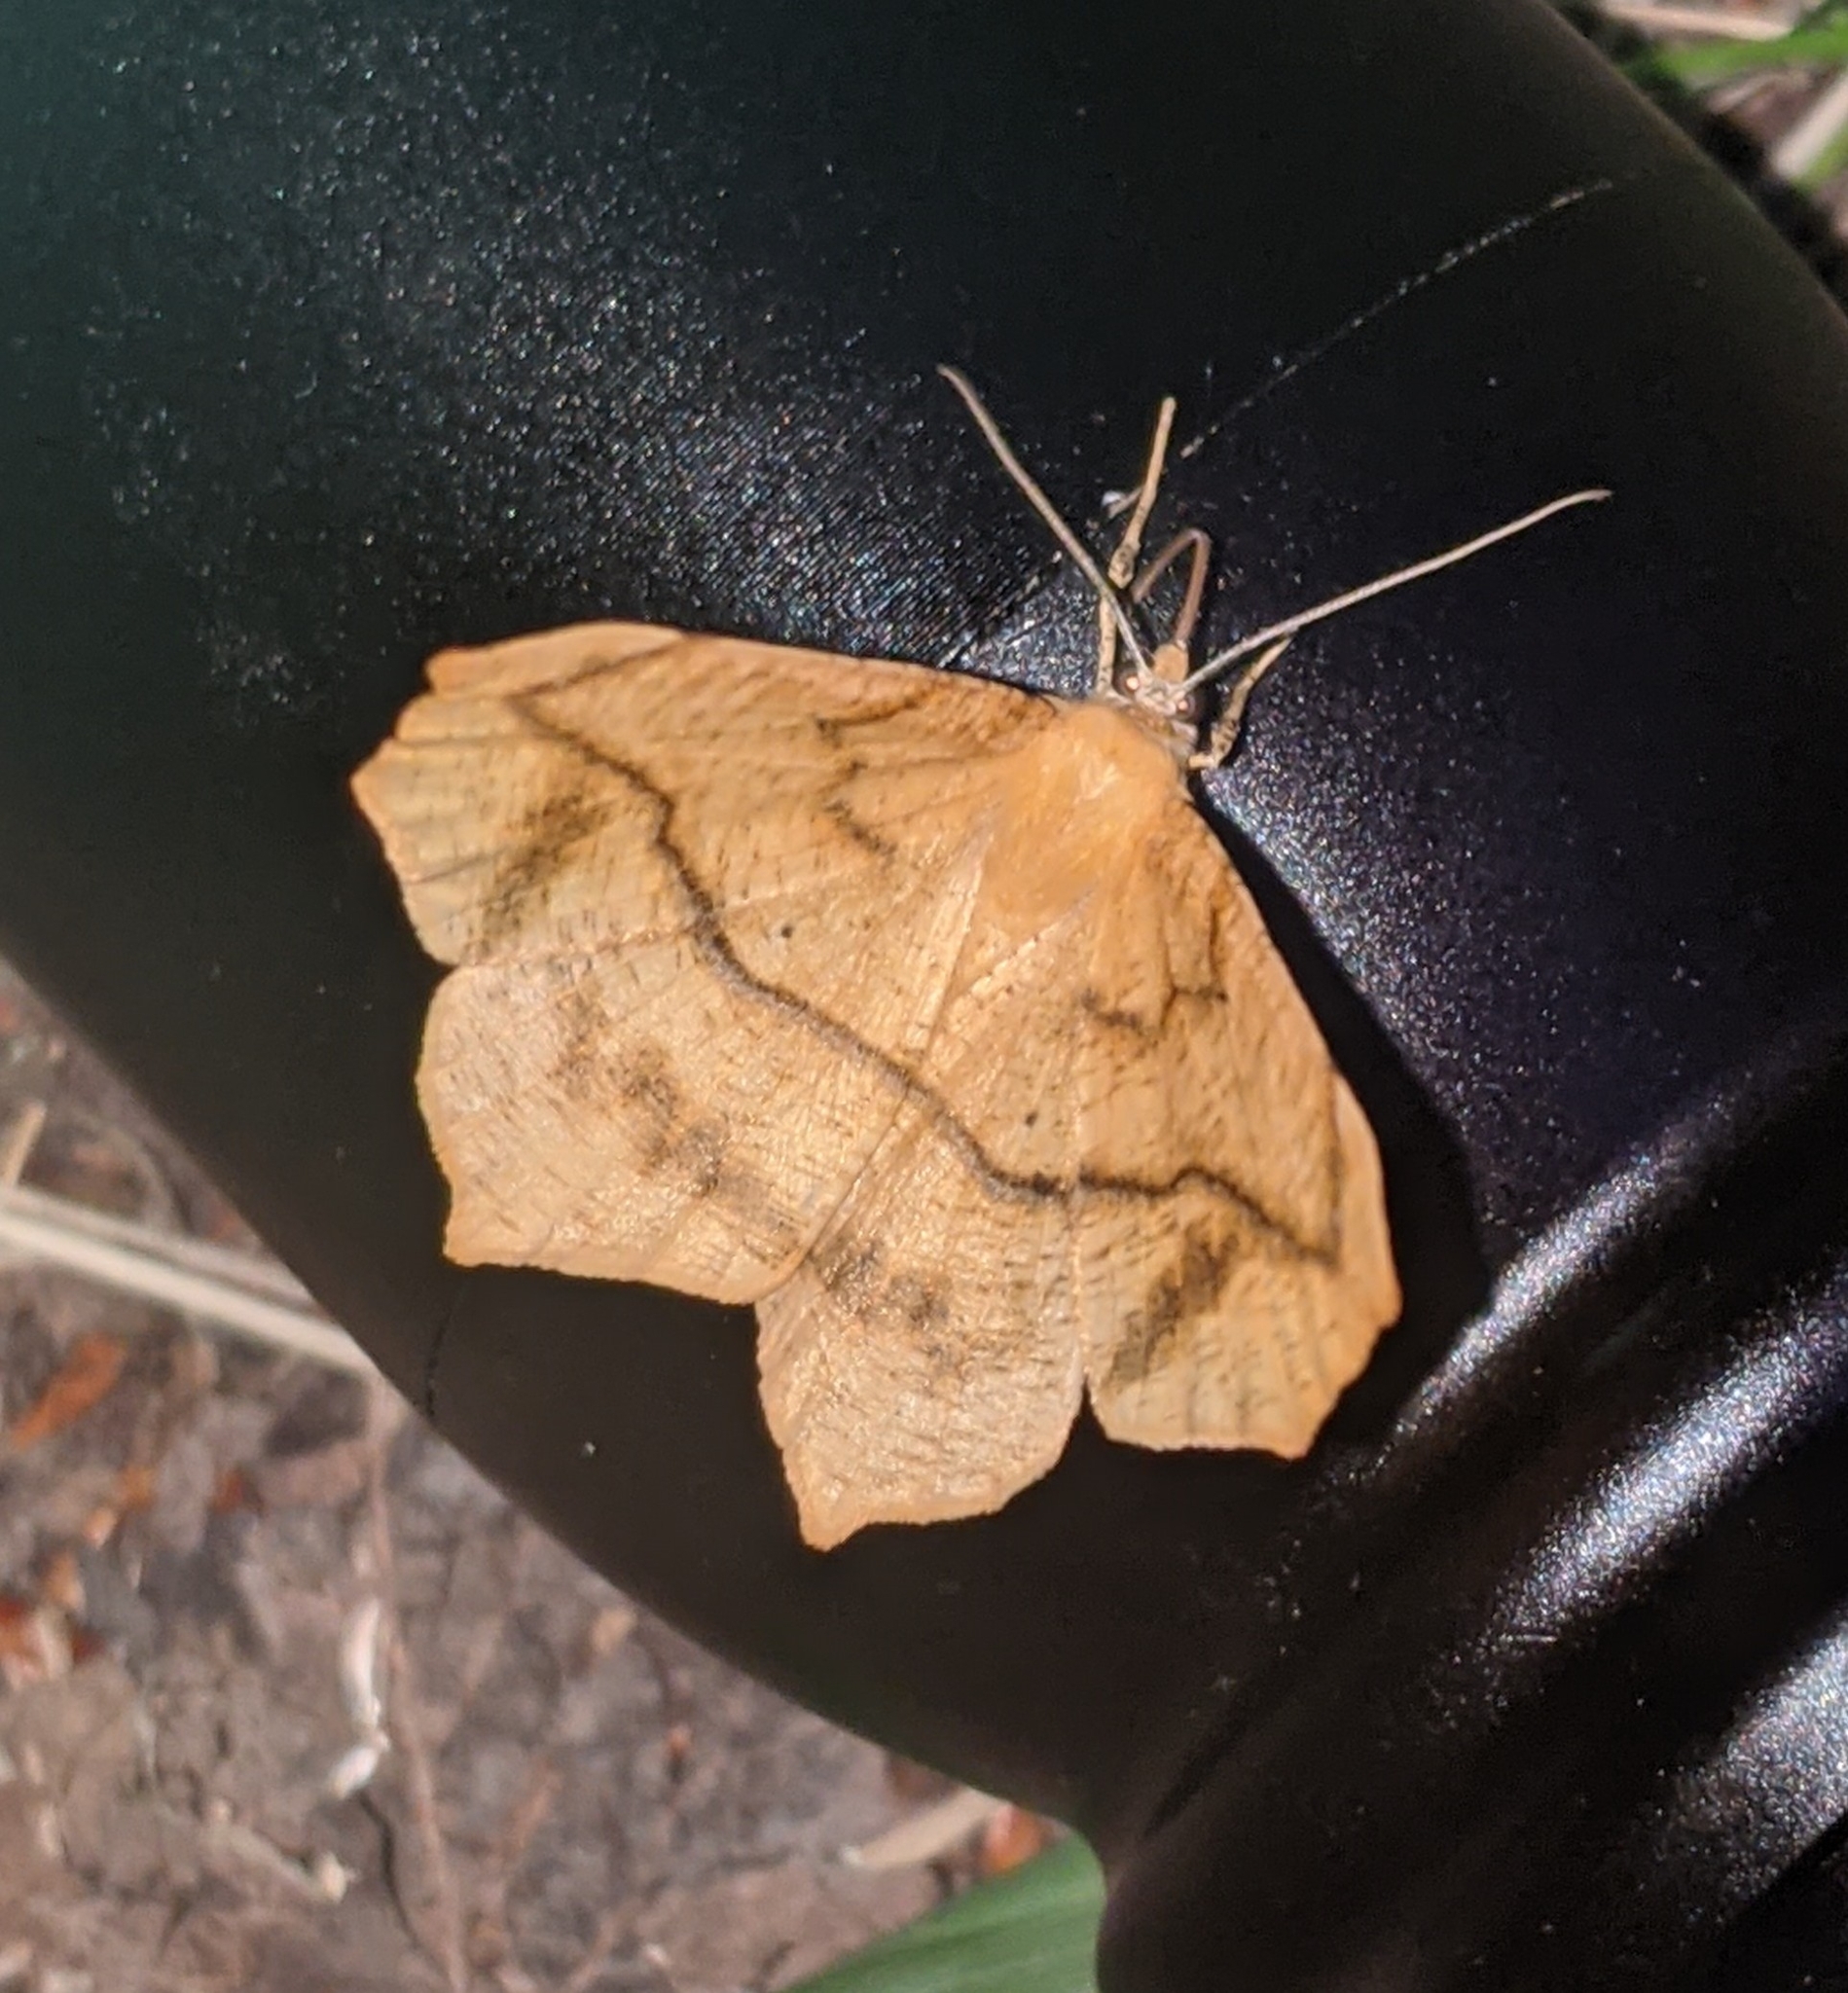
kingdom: Animalia
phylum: Arthropoda
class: Insecta
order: Lepidoptera
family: Geometridae
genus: Prochoerodes
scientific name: Prochoerodes lineola
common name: Large maple spanworm
